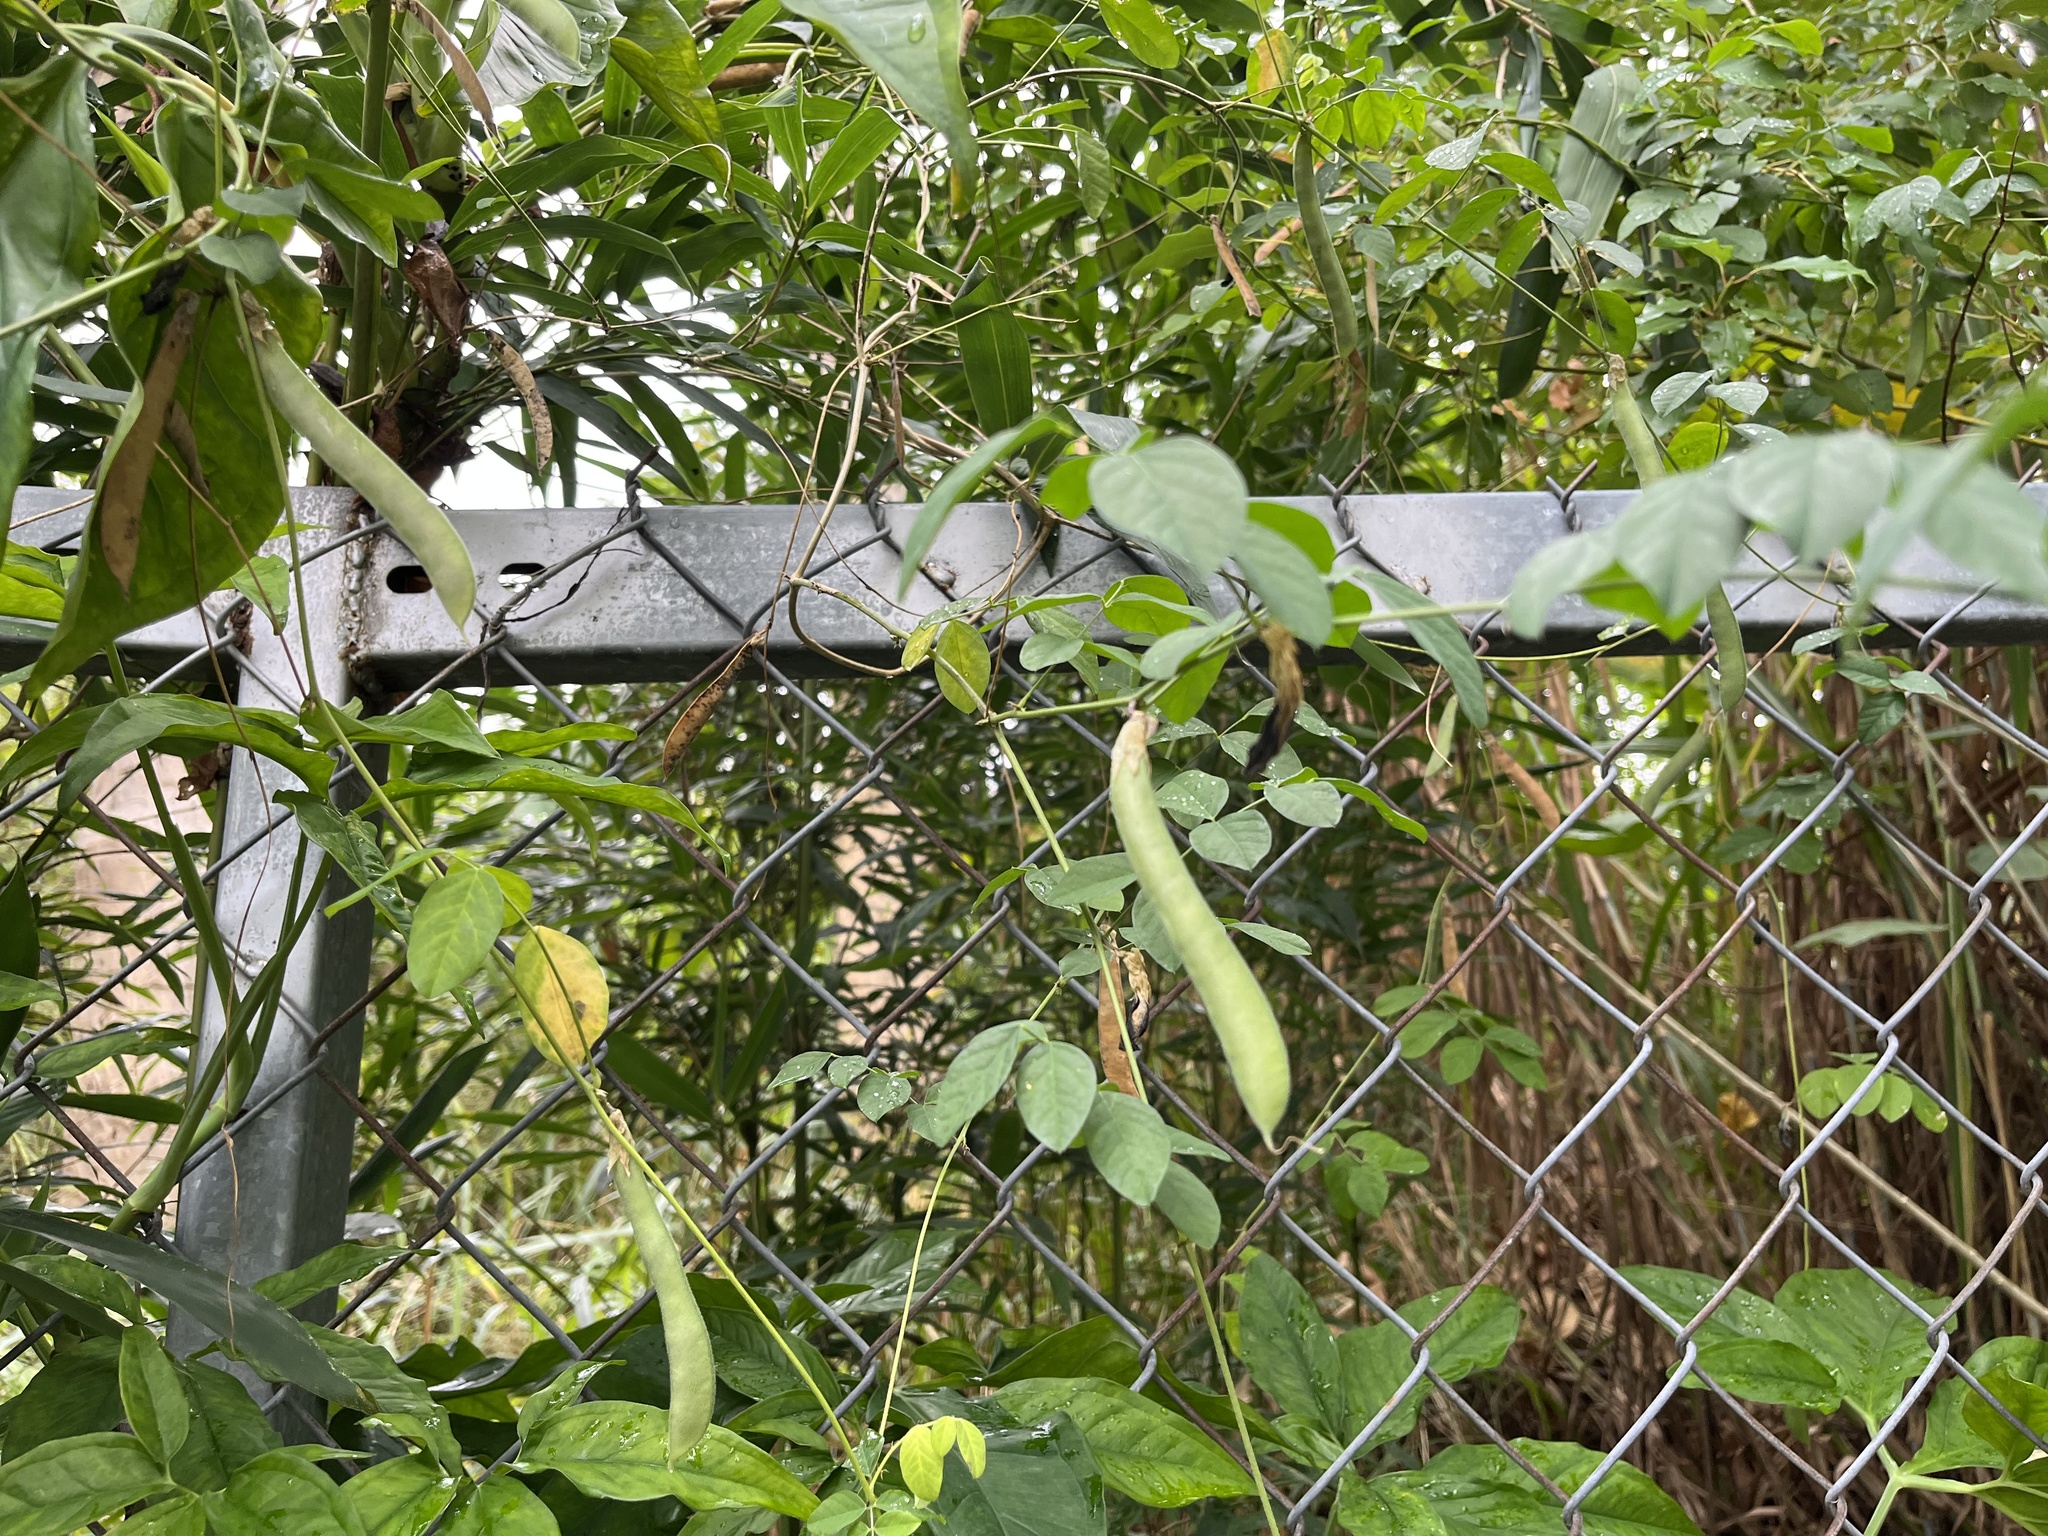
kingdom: Plantae
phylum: Tracheophyta
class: Magnoliopsida
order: Fabales
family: Fabaceae
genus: Clitoria
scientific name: Clitoria ternatea
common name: Asian pigeonwings
